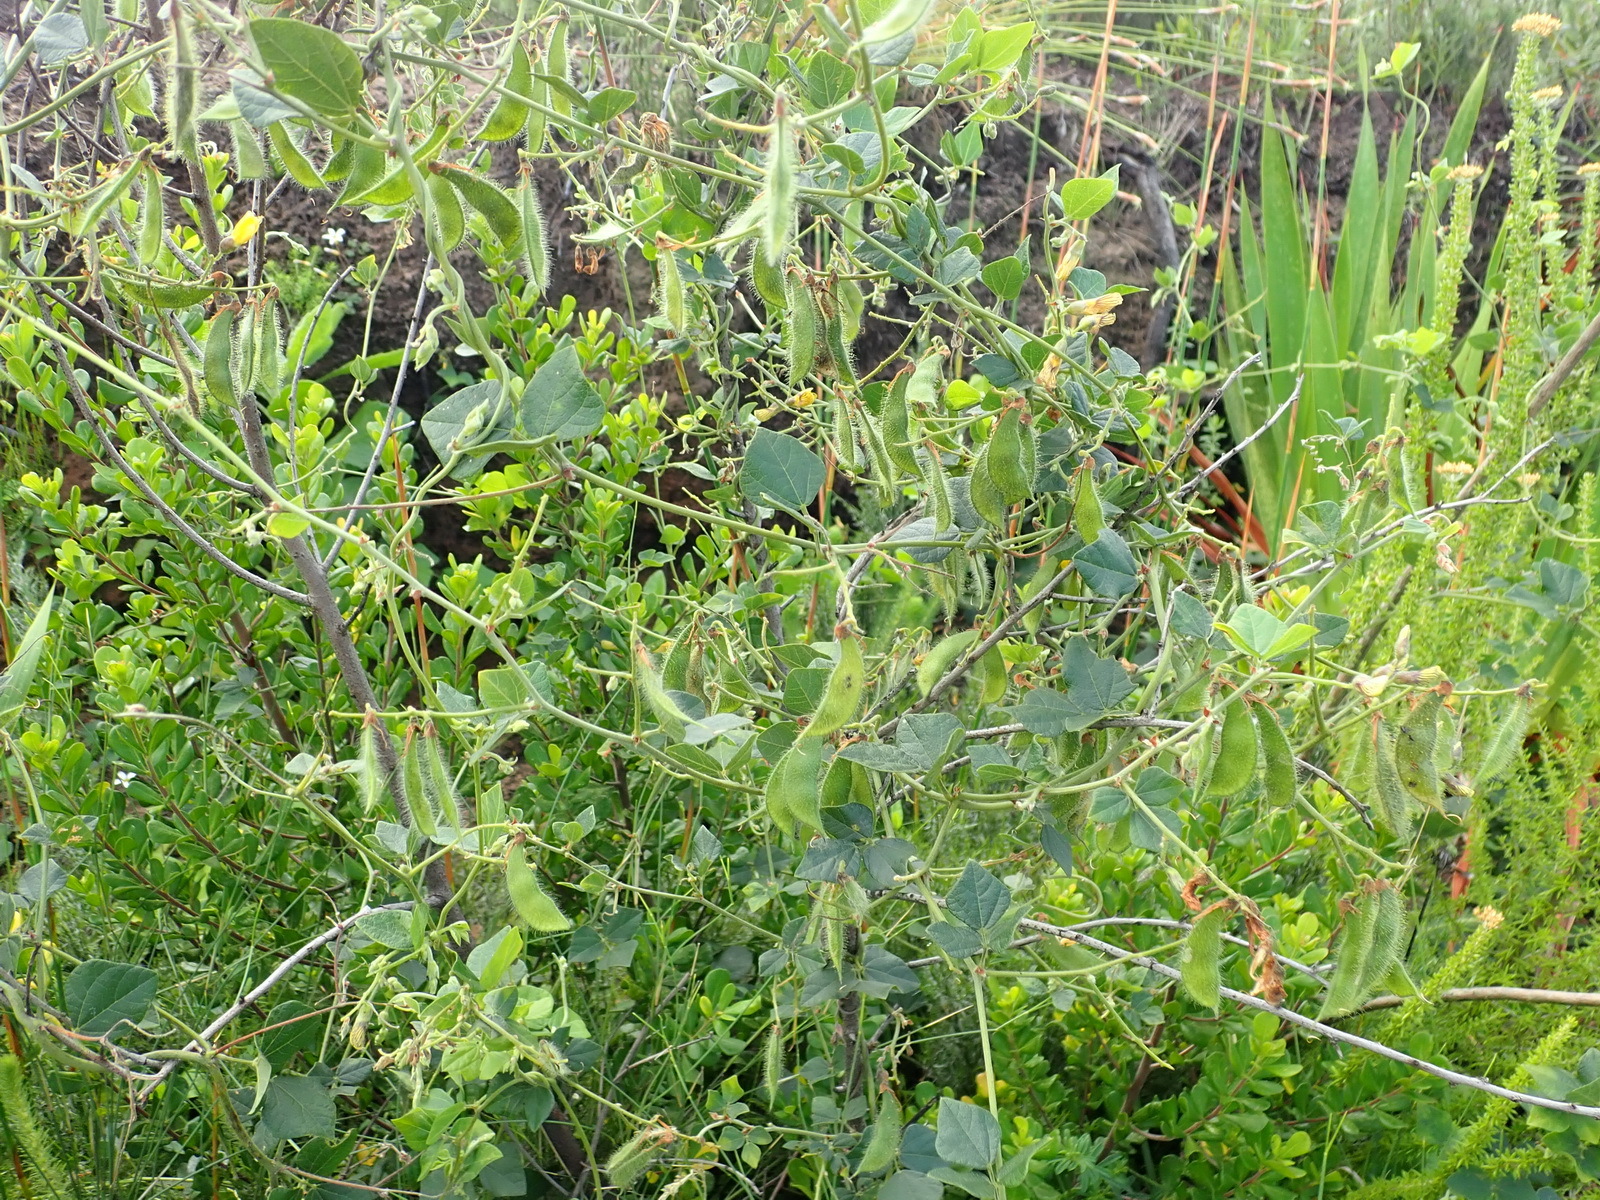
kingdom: Plantae
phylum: Tracheophyta
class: Magnoliopsida
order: Fabales
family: Fabaceae
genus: Rhynchosia
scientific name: Rhynchosia caribaea
